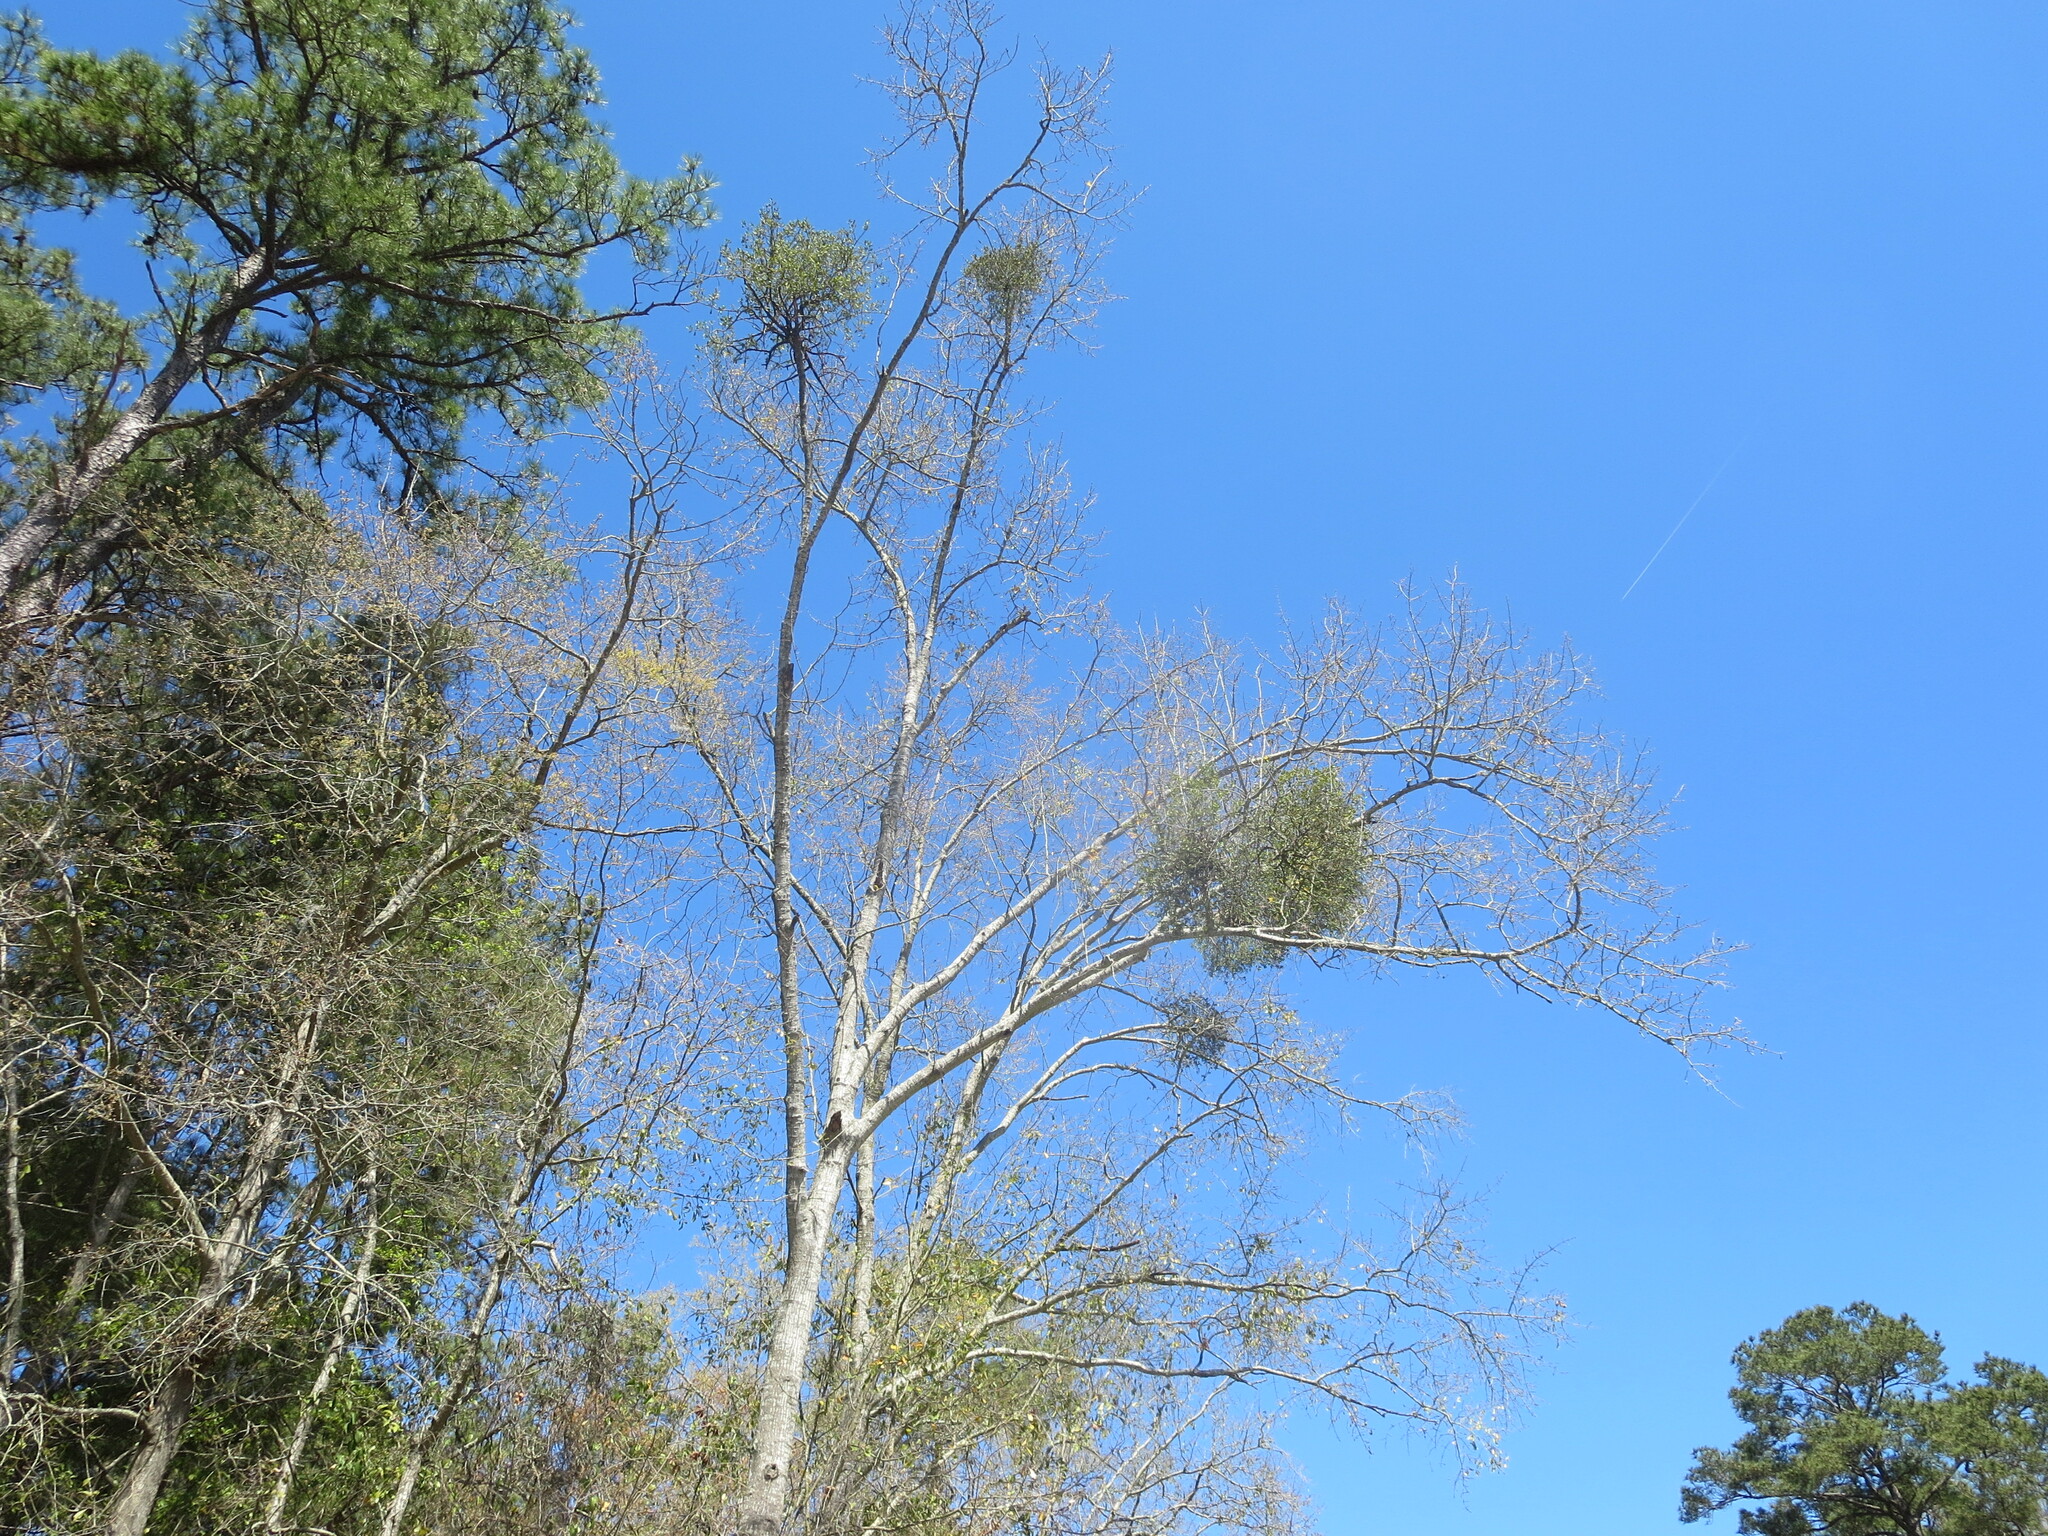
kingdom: Plantae
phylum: Tracheophyta
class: Magnoliopsida
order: Santalales
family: Viscaceae
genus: Phoradendron
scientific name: Phoradendron leucarpum
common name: Pacific mistletoe
